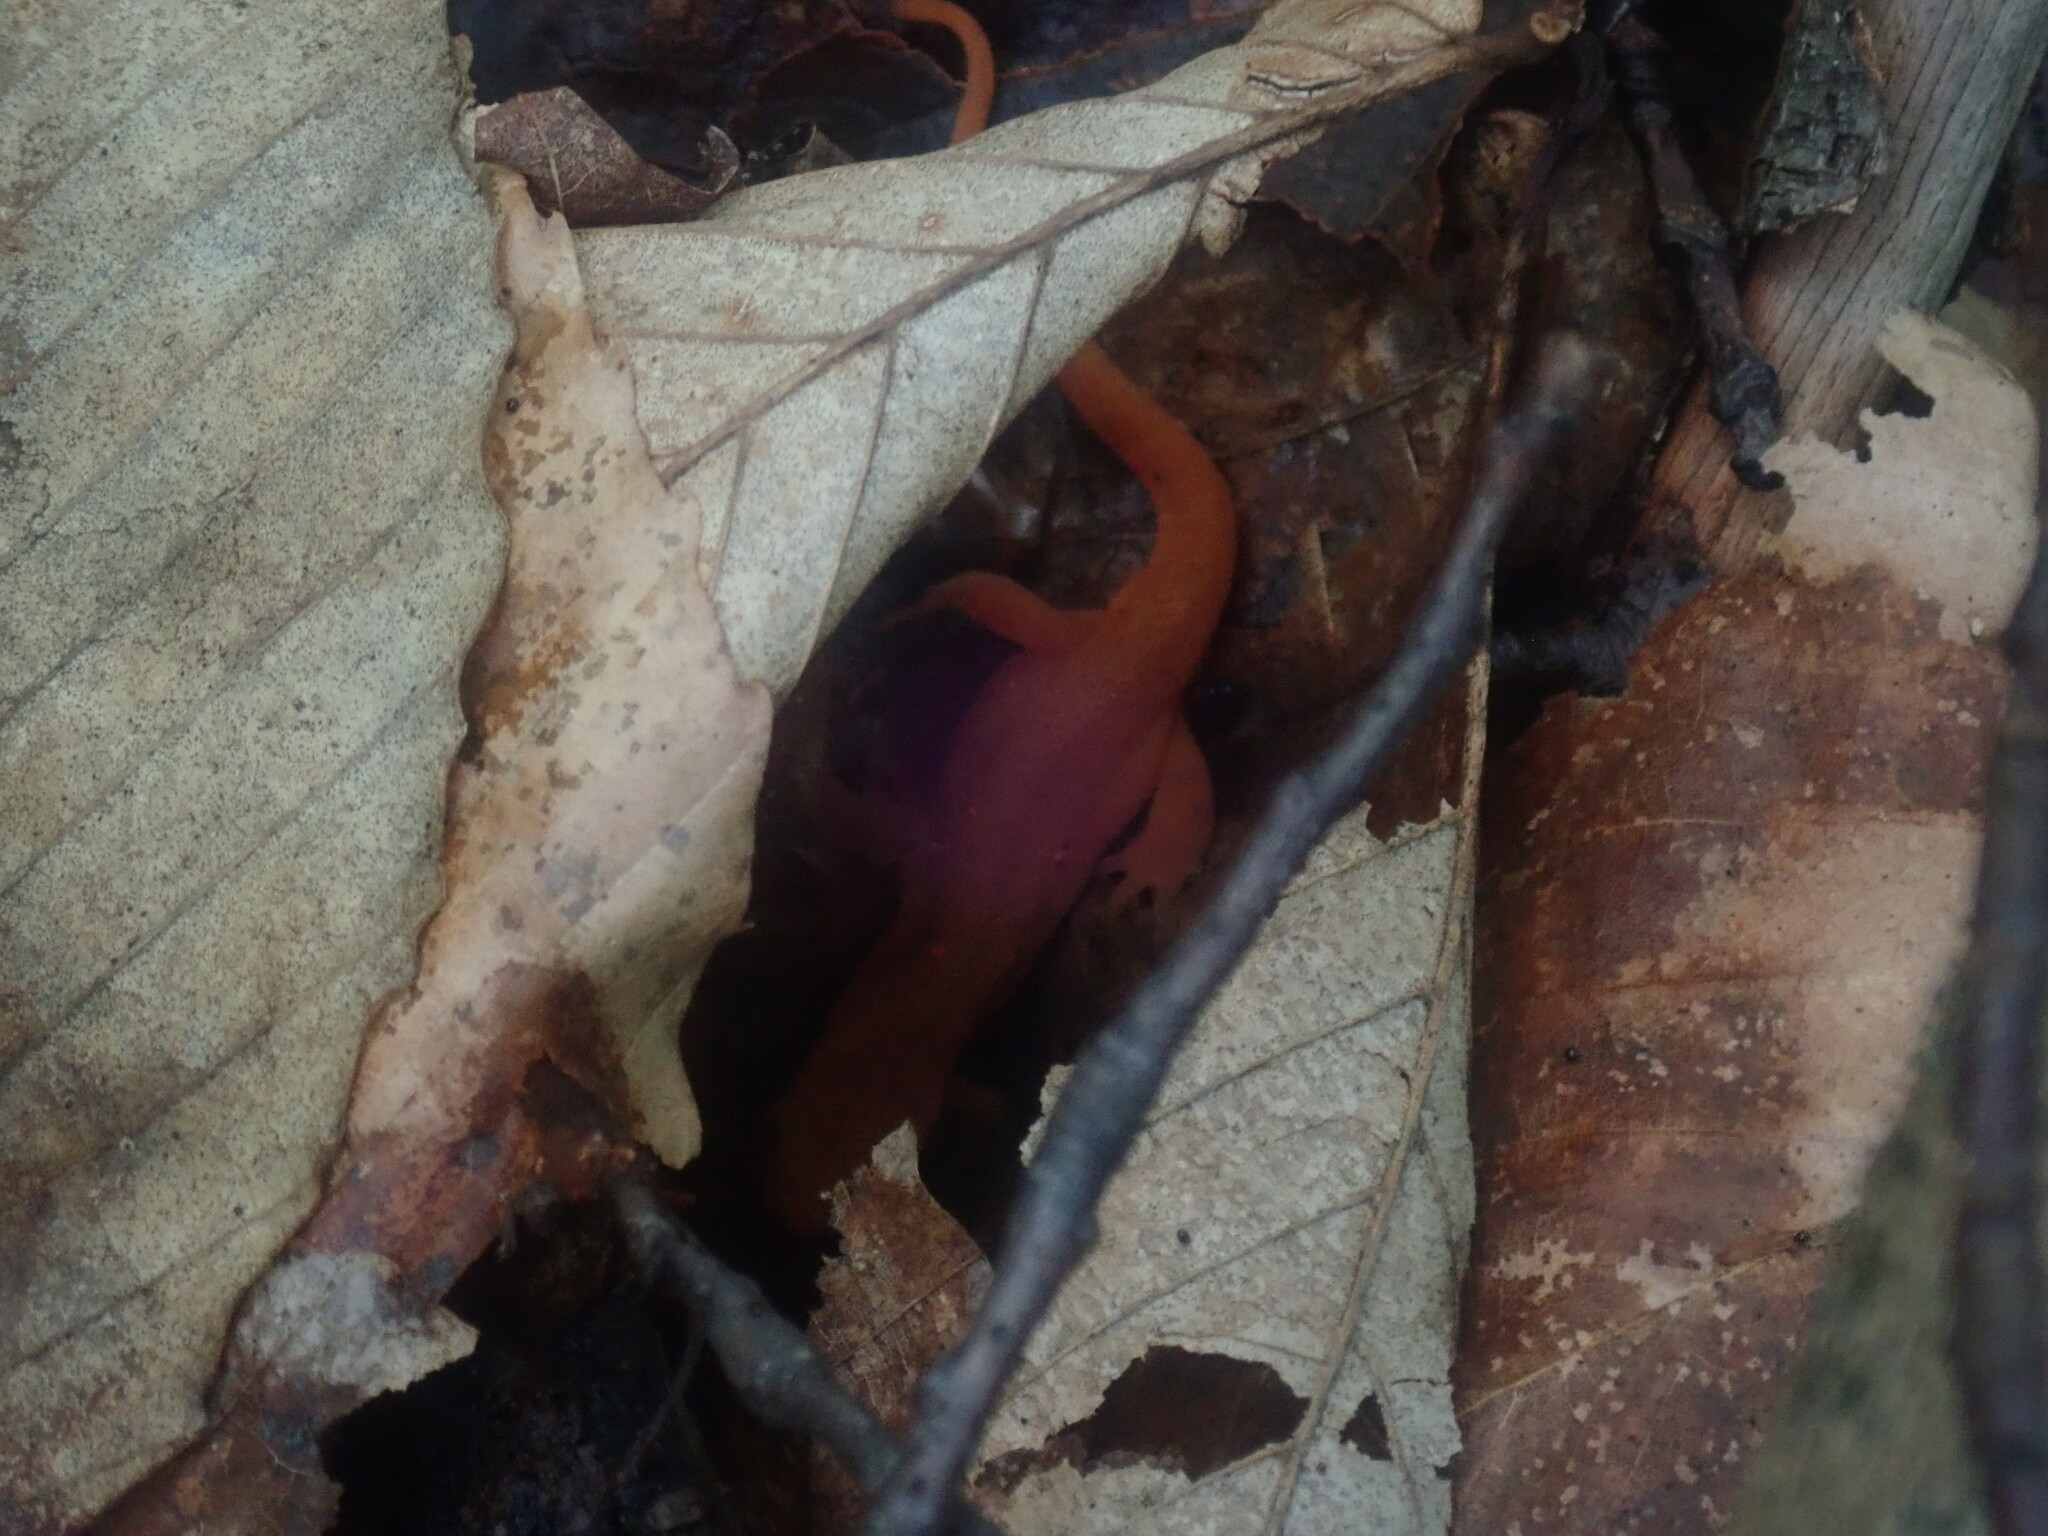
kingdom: Animalia
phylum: Chordata
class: Amphibia
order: Caudata
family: Salamandridae
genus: Notophthalmus
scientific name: Notophthalmus viridescens
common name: Eastern newt
